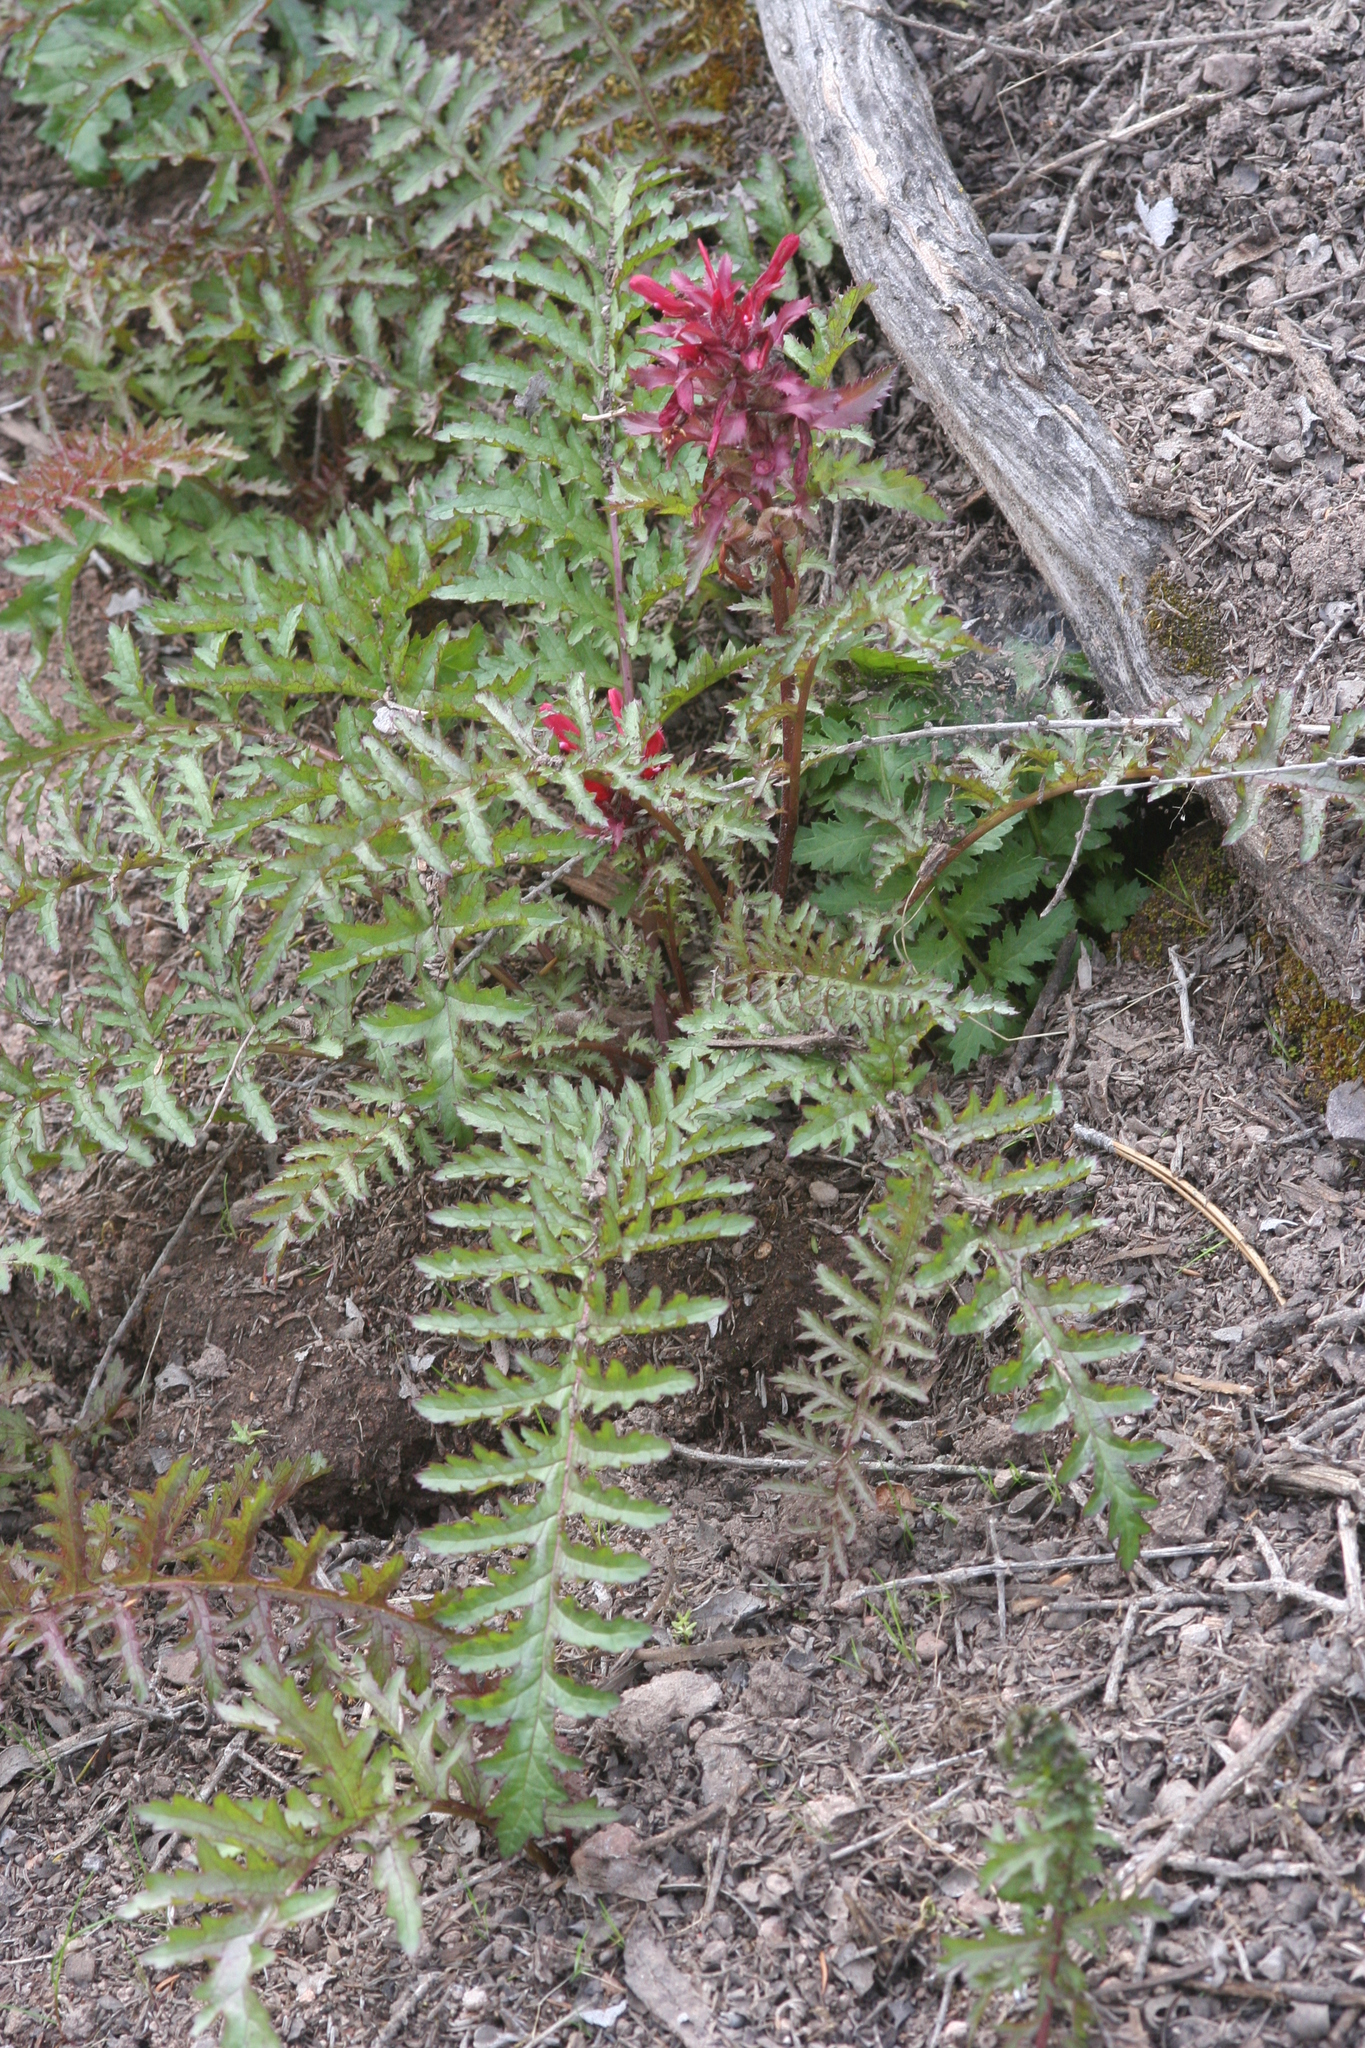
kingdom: Plantae
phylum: Tracheophyta
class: Magnoliopsida
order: Lamiales
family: Orobanchaceae
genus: Pedicularis
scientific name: Pedicularis densiflora
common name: Indian warrior
